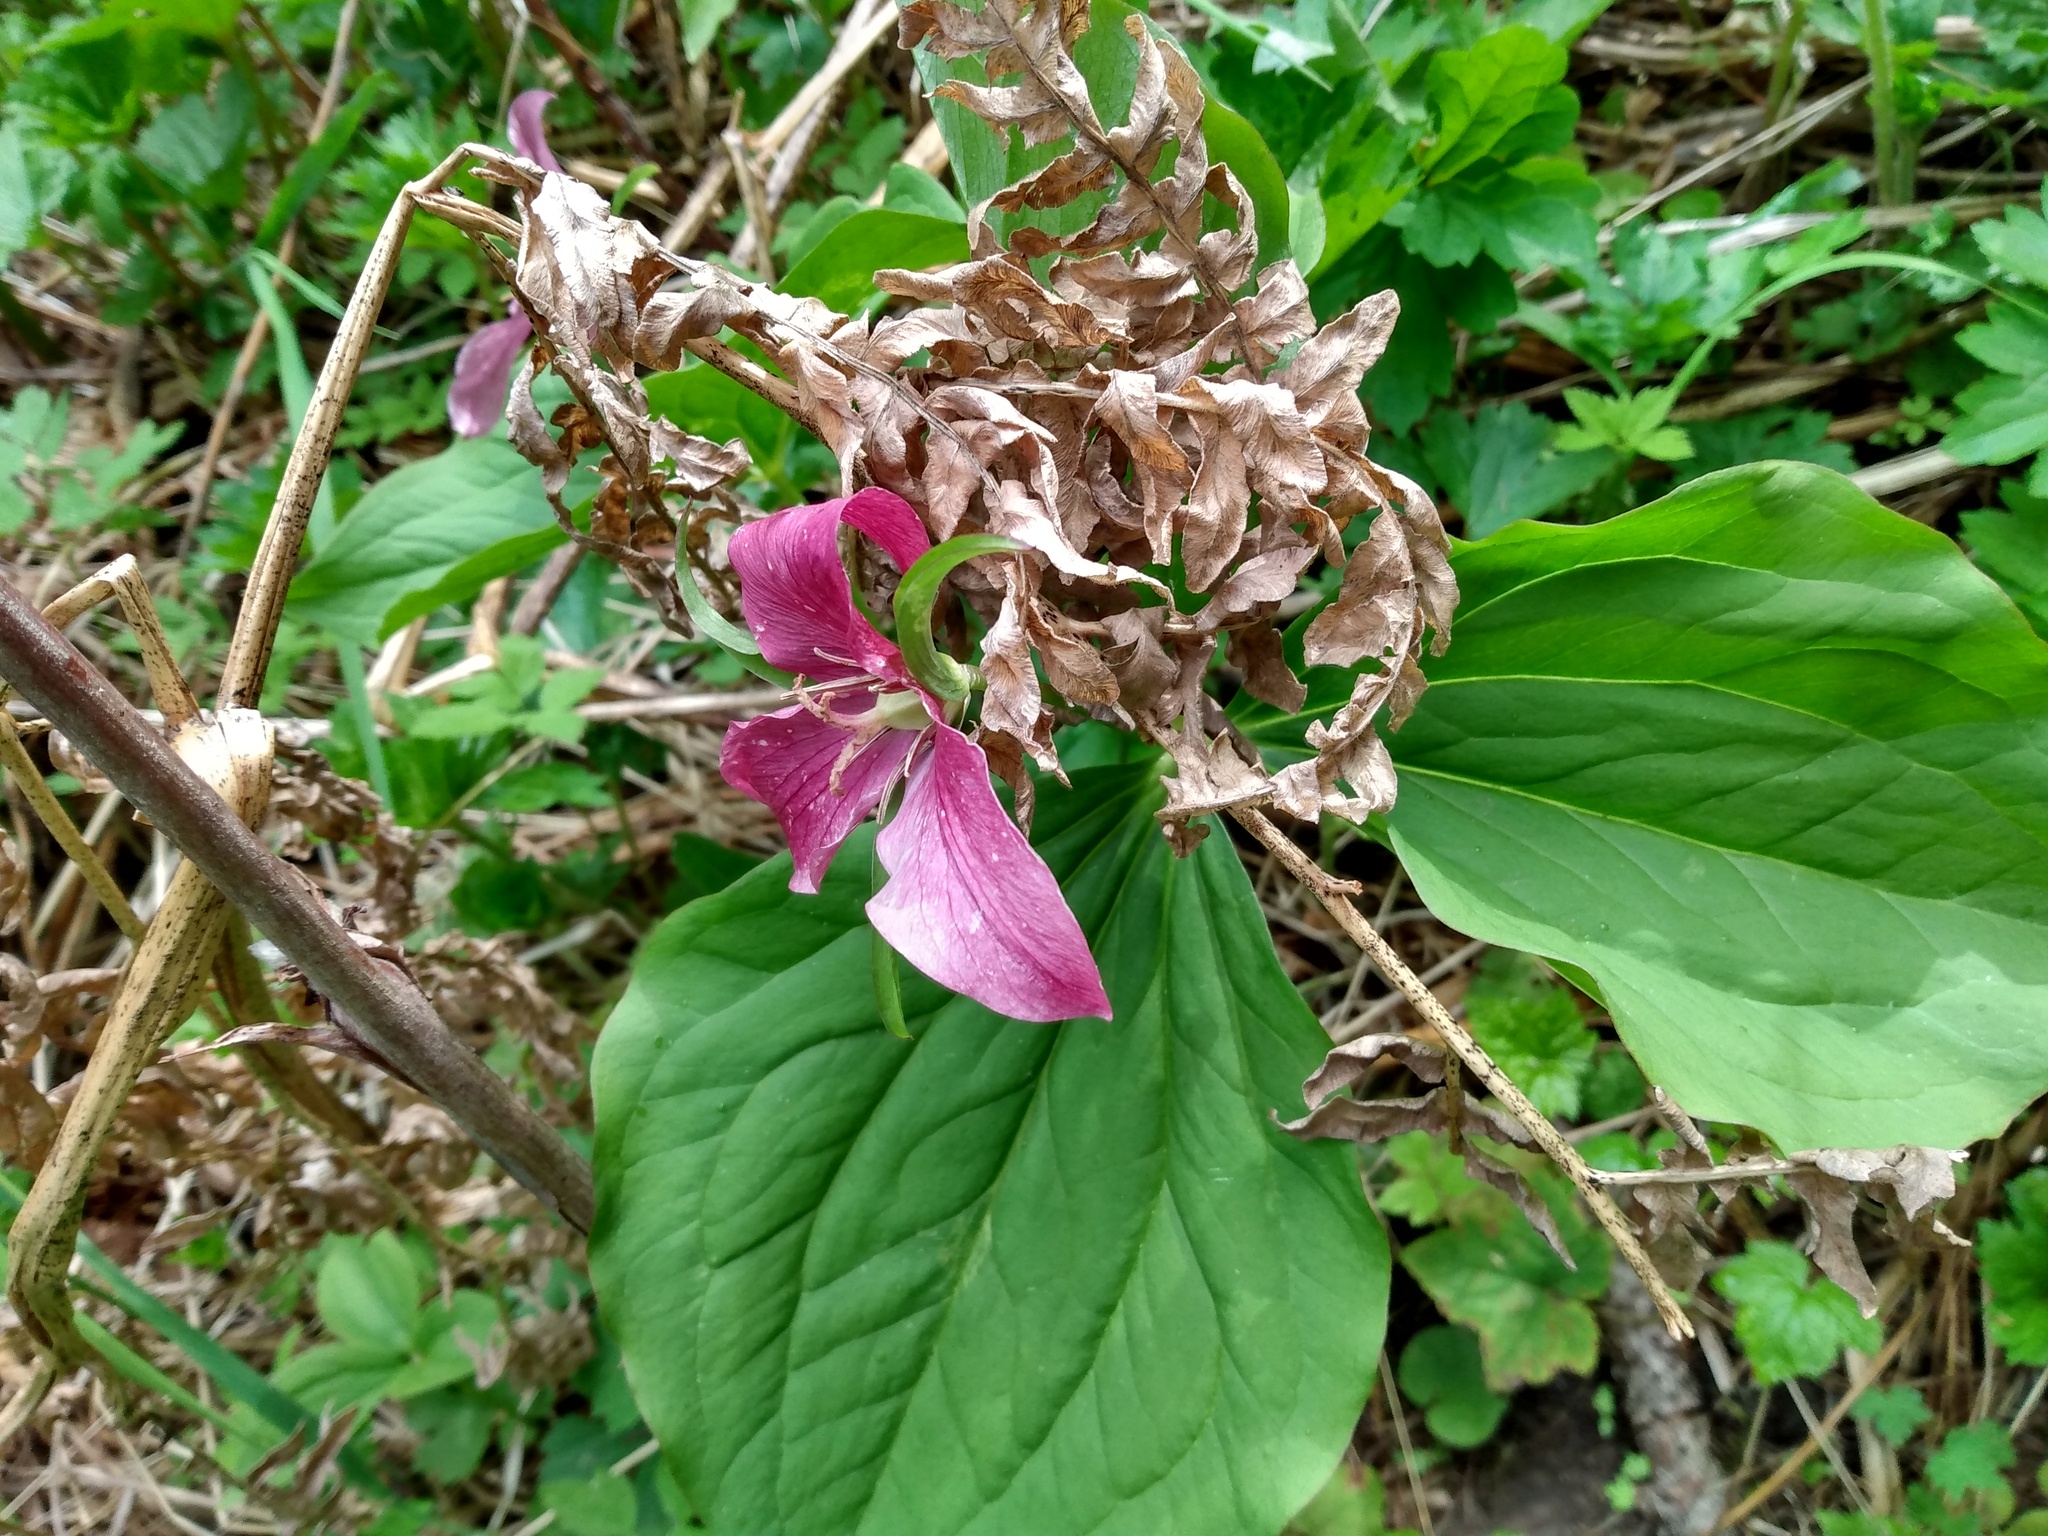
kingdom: Plantae
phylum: Tracheophyta
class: Liliopsida
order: Liliales
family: Melanthiaceae
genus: Trillium
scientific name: Trillium ovatum
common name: Pacific trillium
